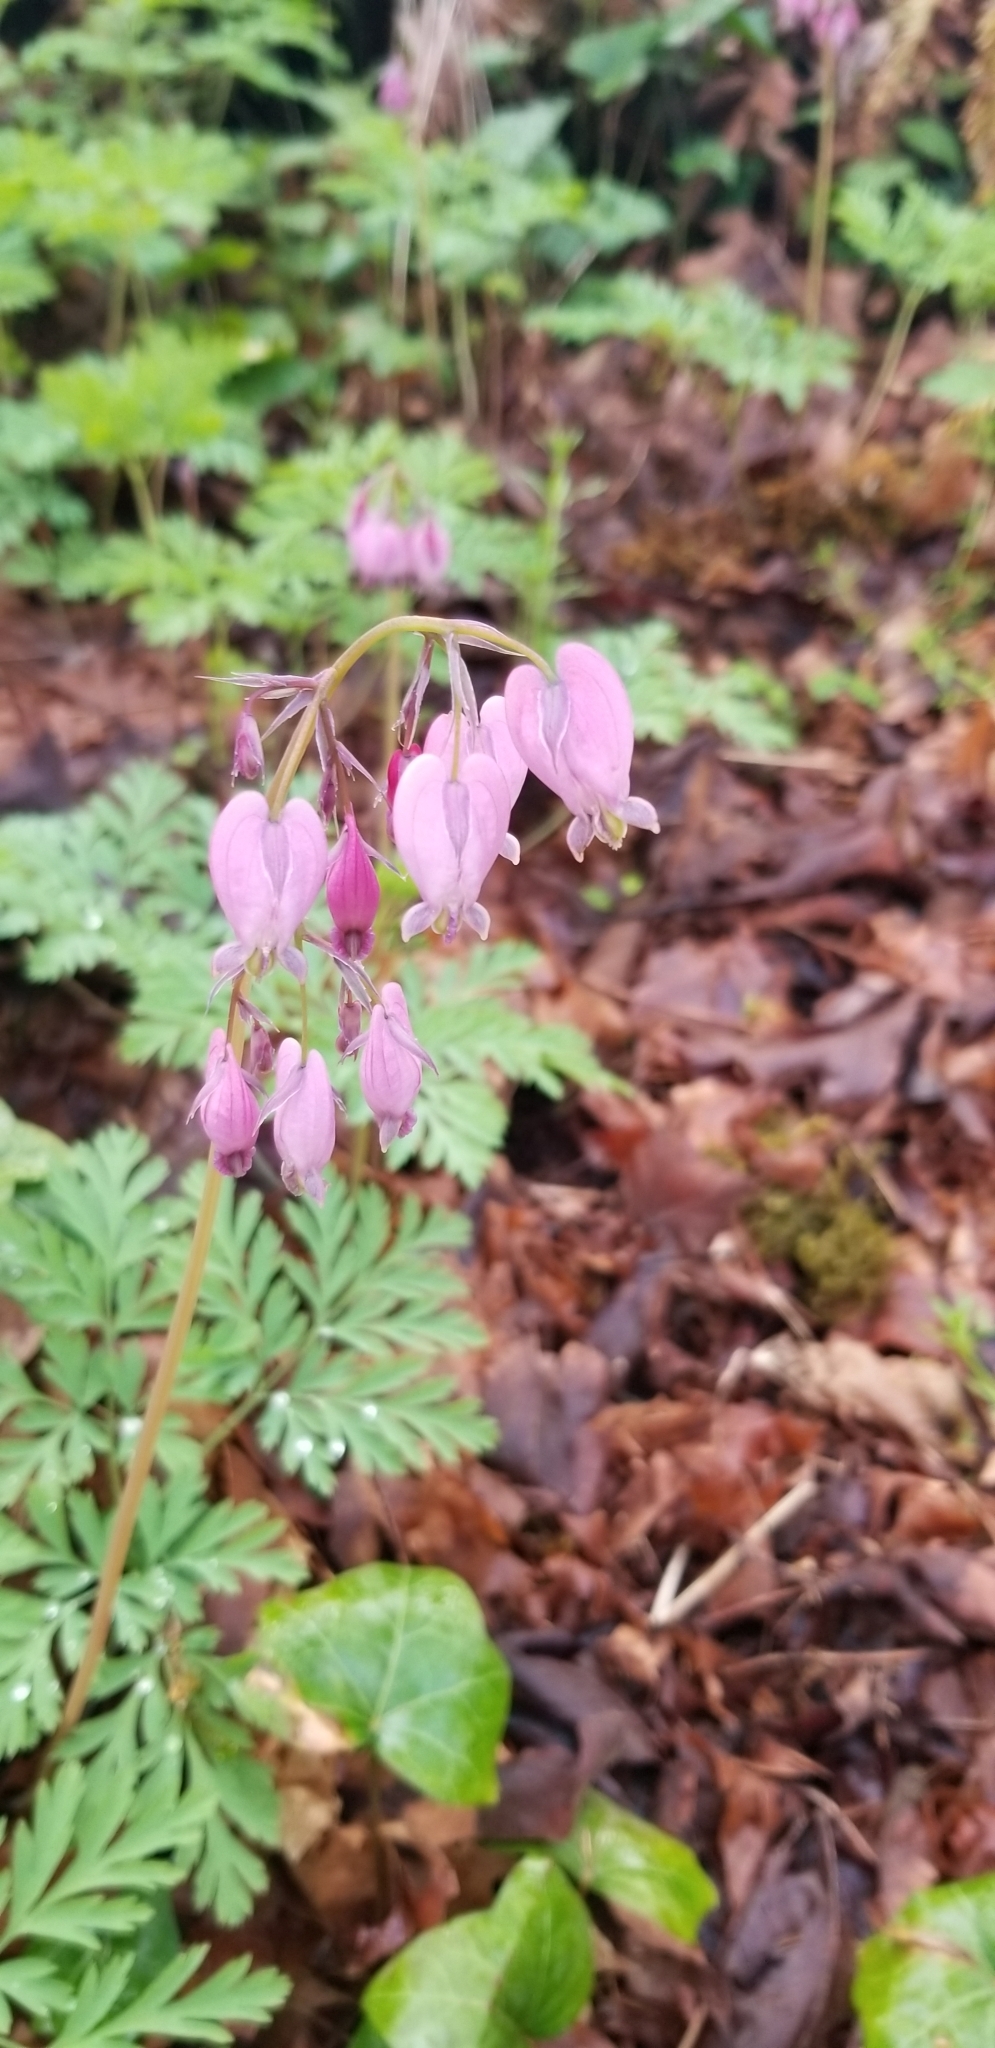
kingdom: Plantae
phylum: Tracheophyta
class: Magnoliopsida
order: Ranunculales
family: Papaveraceae
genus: Dicentra
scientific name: Dicentra formosa
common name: Bleeding-heart
